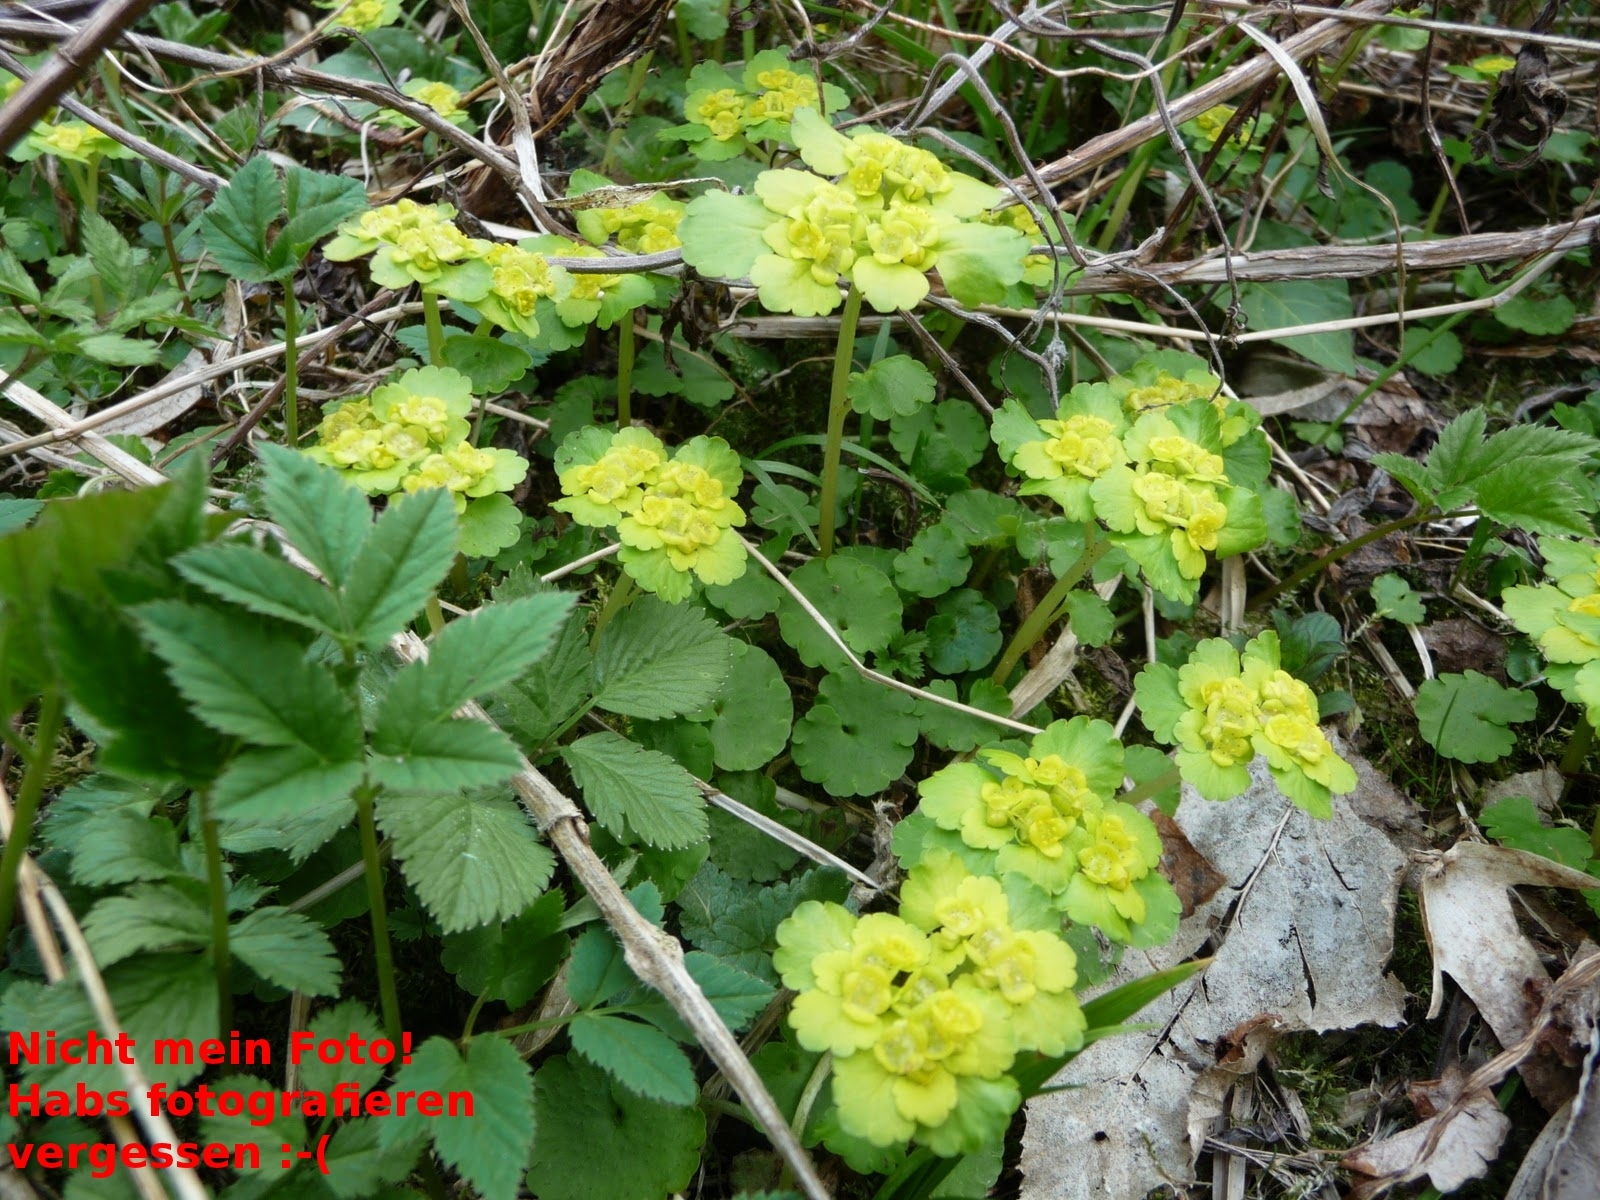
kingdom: Plantae
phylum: Tracheophyta
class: Magnoliopsida
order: Saxifragales
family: Saxifragaceae
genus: Chrysosplenium
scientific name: Chrysosplenium alternifolium
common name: Alternate-leaved golden-saxifrage
